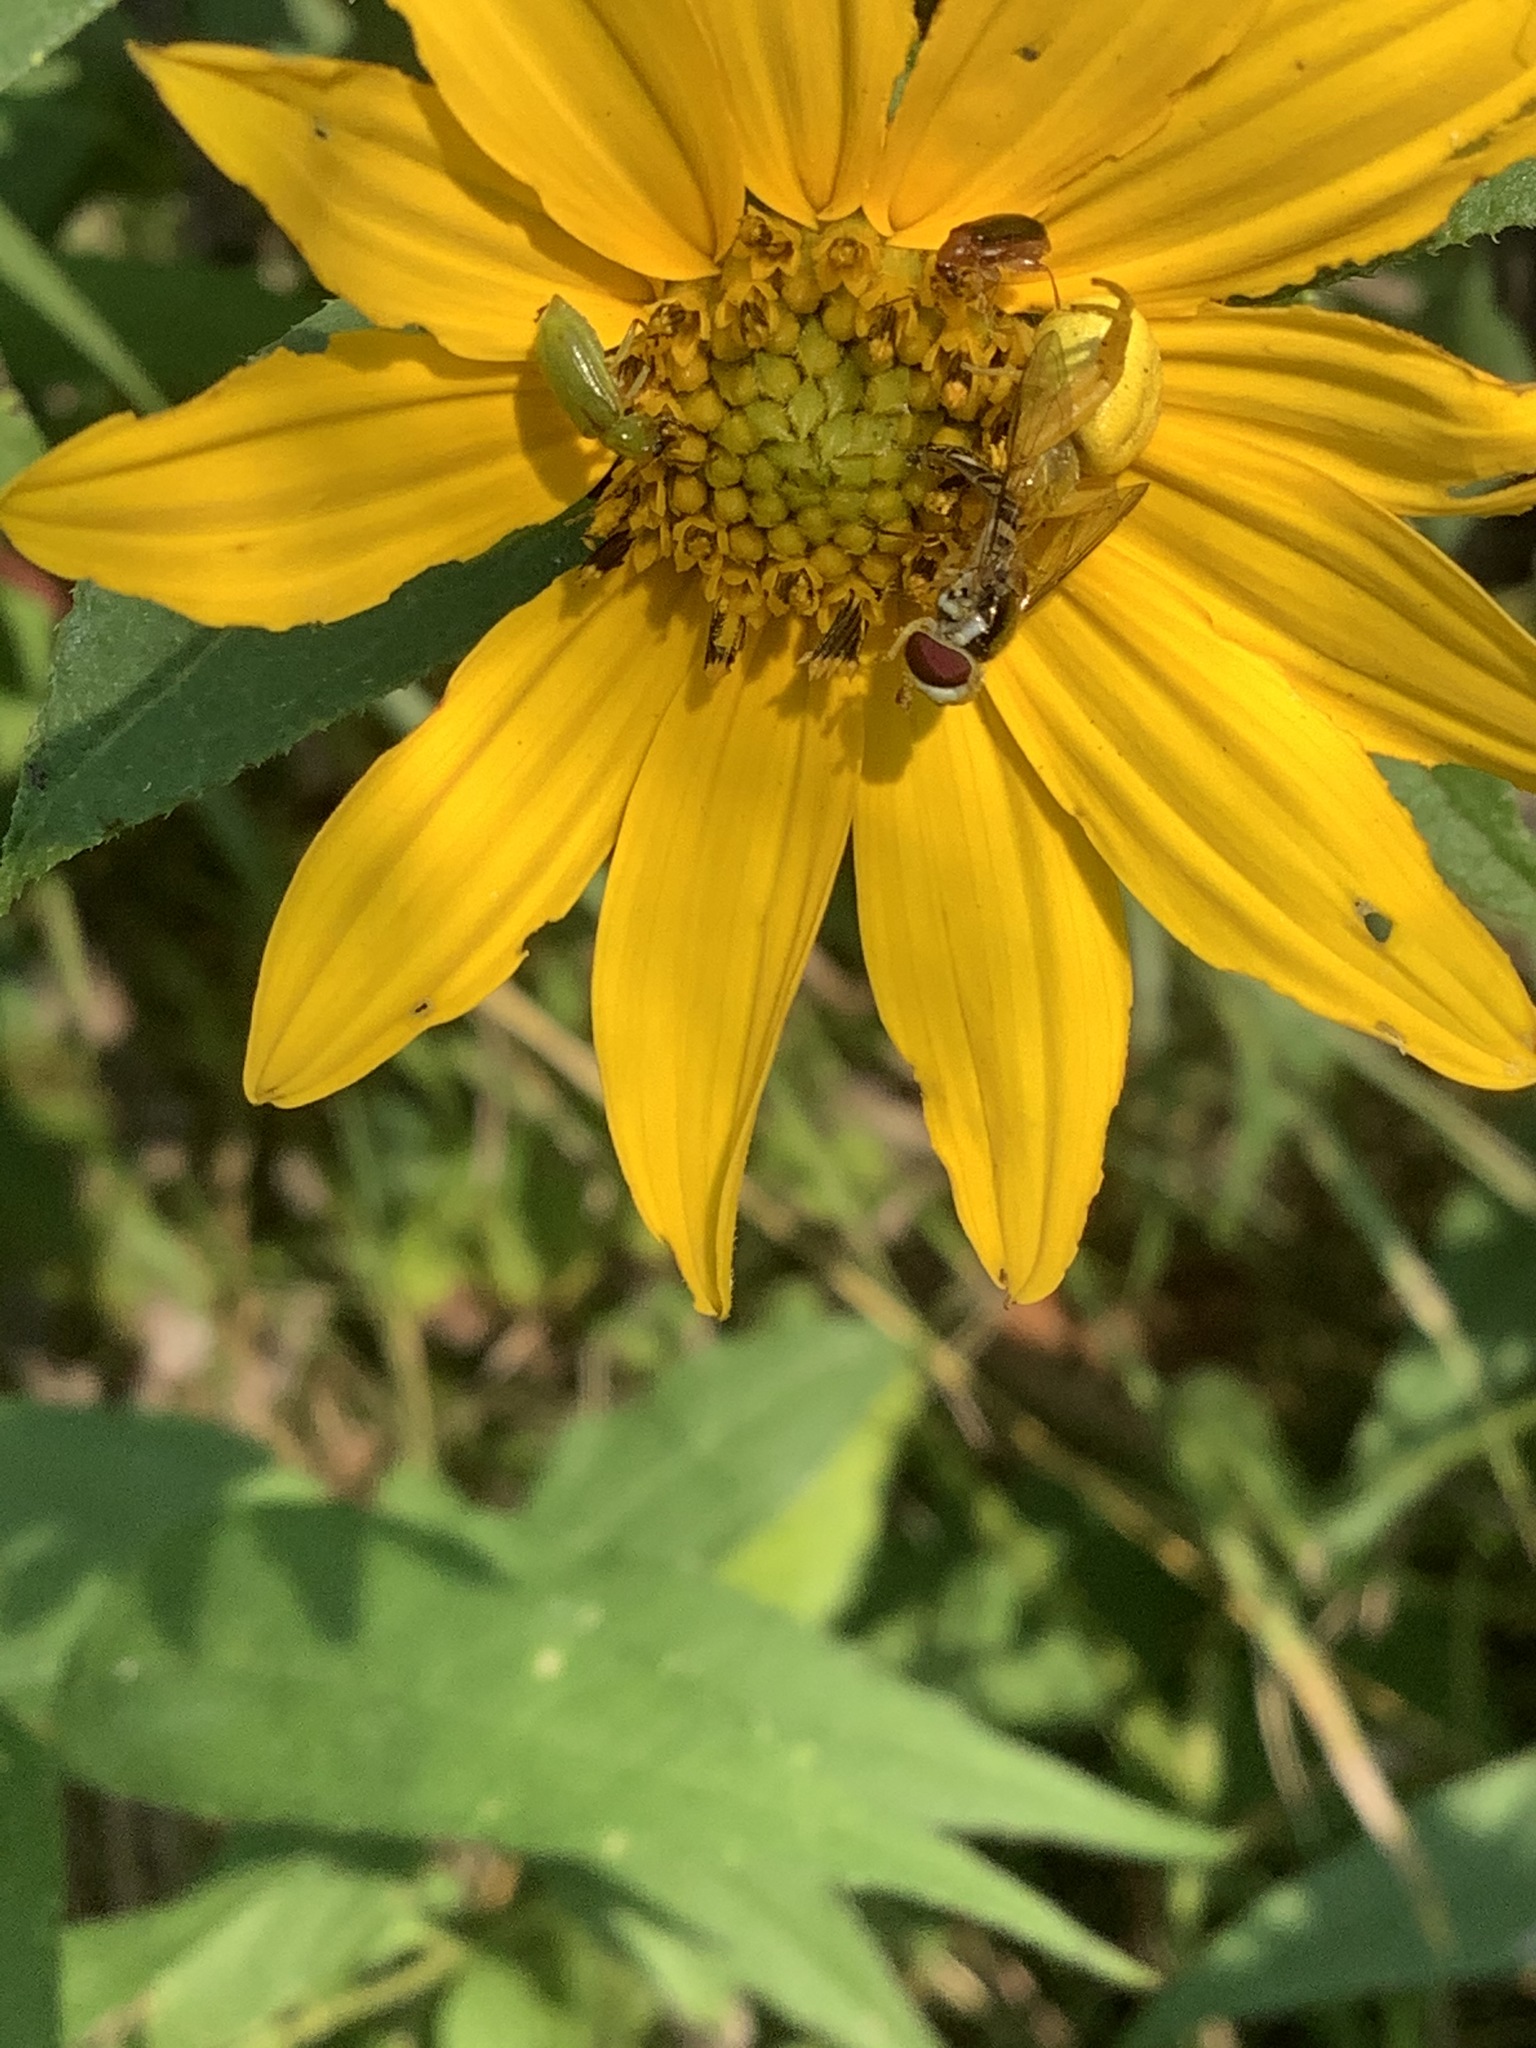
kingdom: Animalia
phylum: Arthropoda
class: Insecta
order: Coleoptera
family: Chrysomelidae
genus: Diabrotica
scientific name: Diabrotica barberi
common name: Northern corn rootworm
